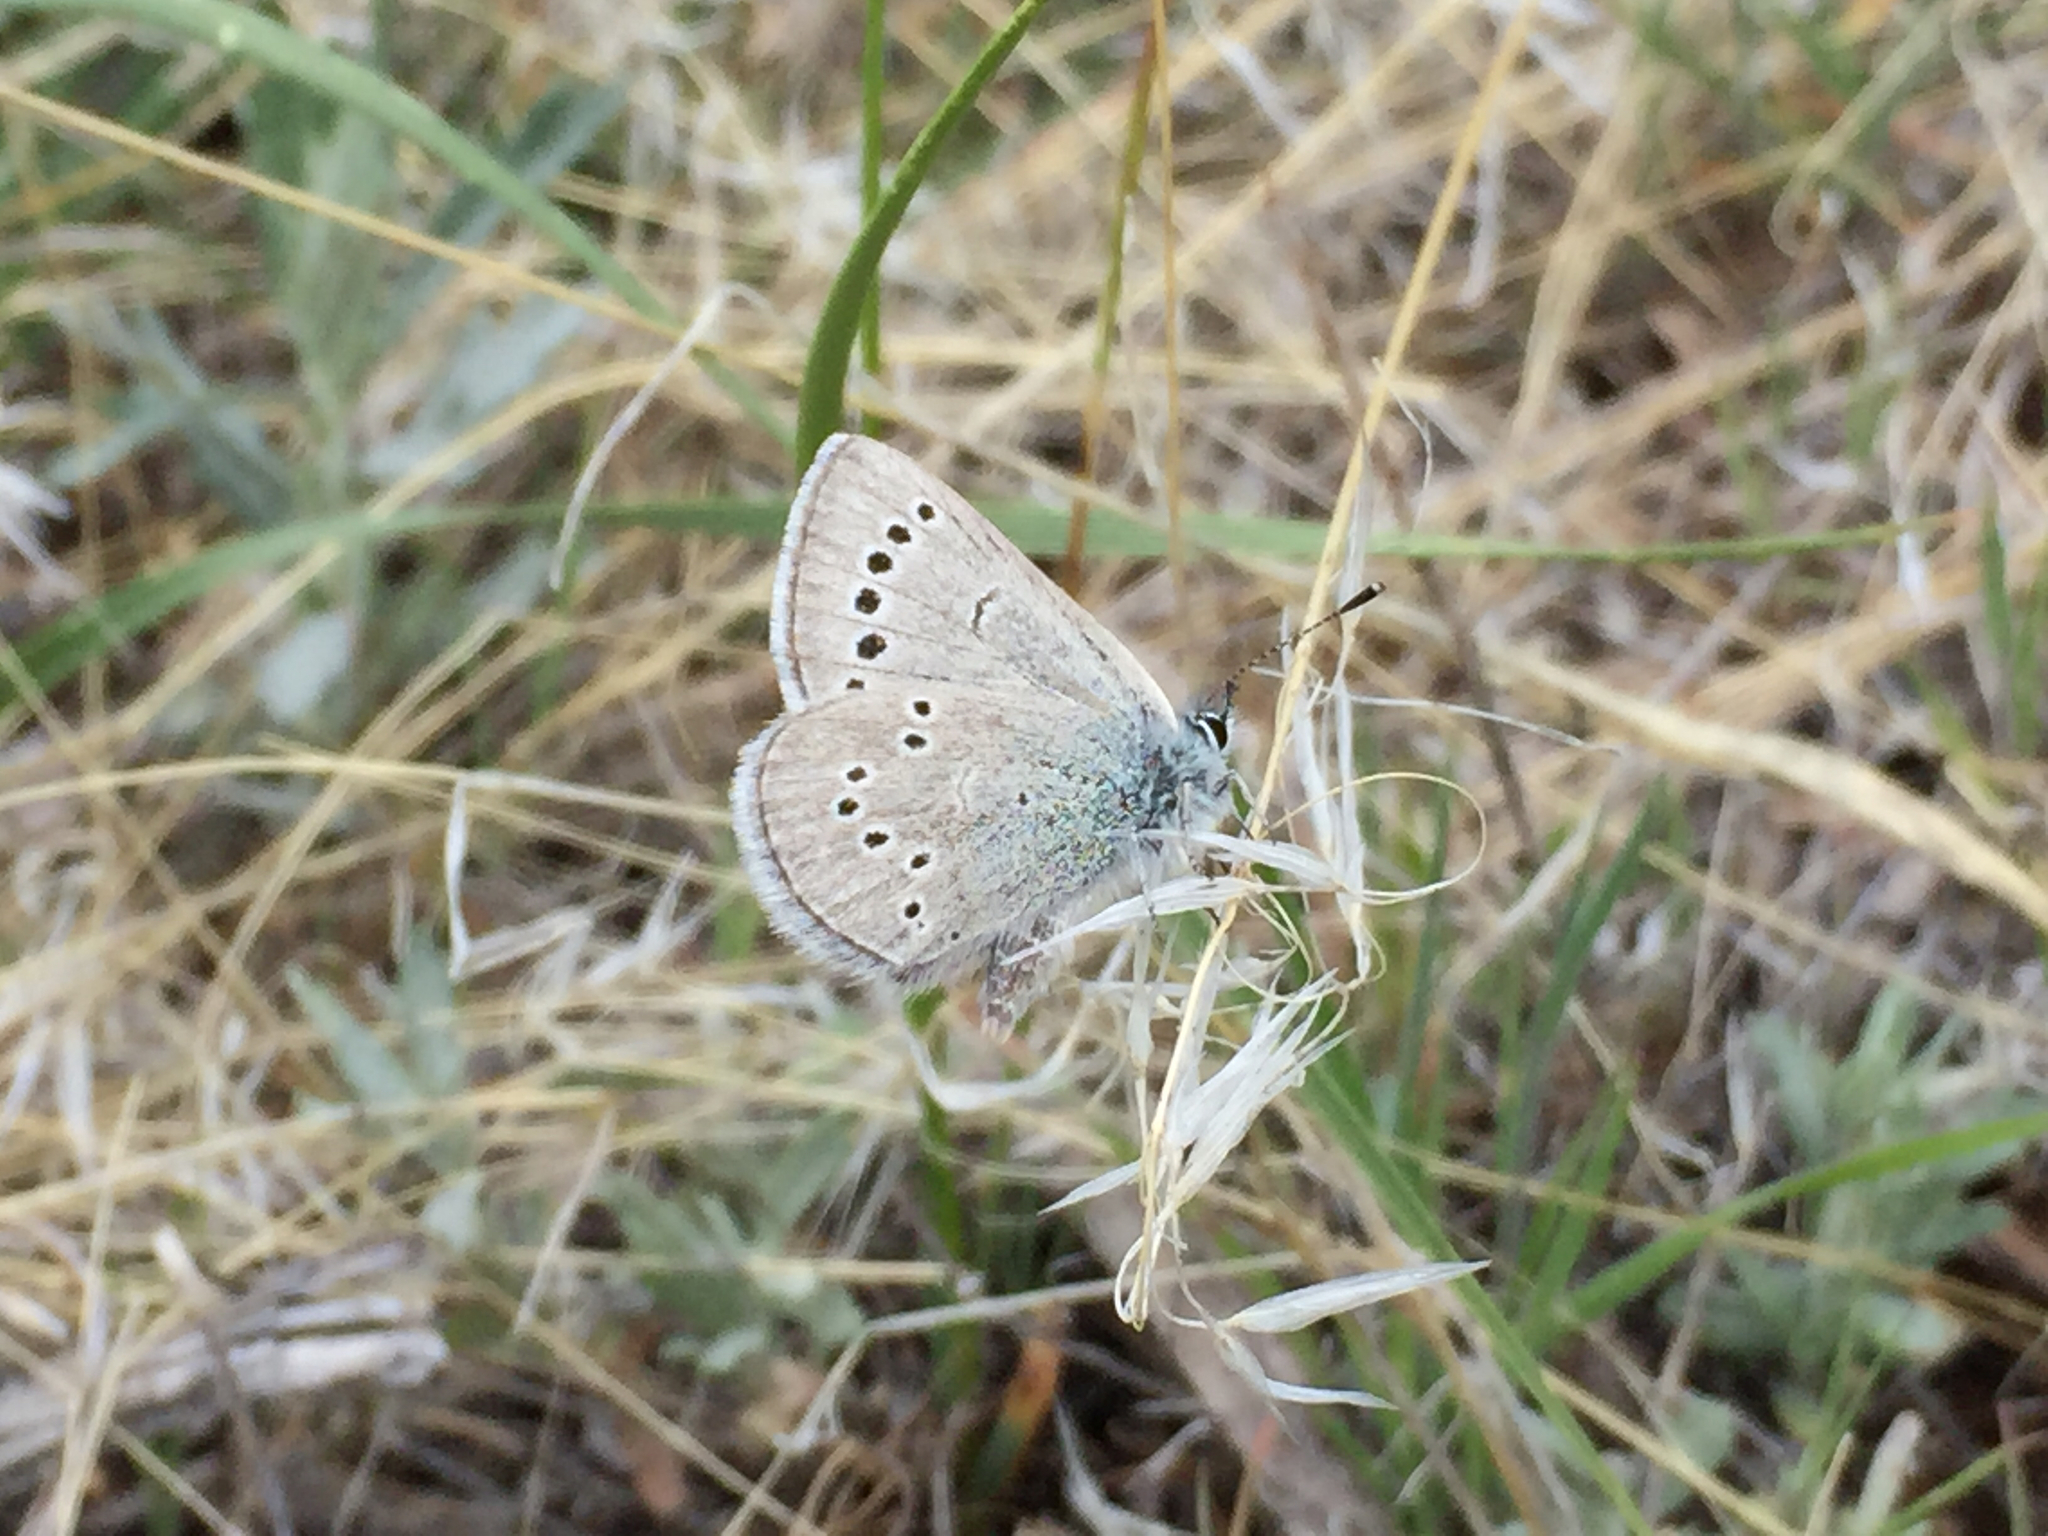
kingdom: Animalia
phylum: Arthropoda
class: Insecta
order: Lepidoptera
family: Lycaenidae
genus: Glaucopsyche
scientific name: Glaucopsyche lygdamus
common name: Silvery blue
